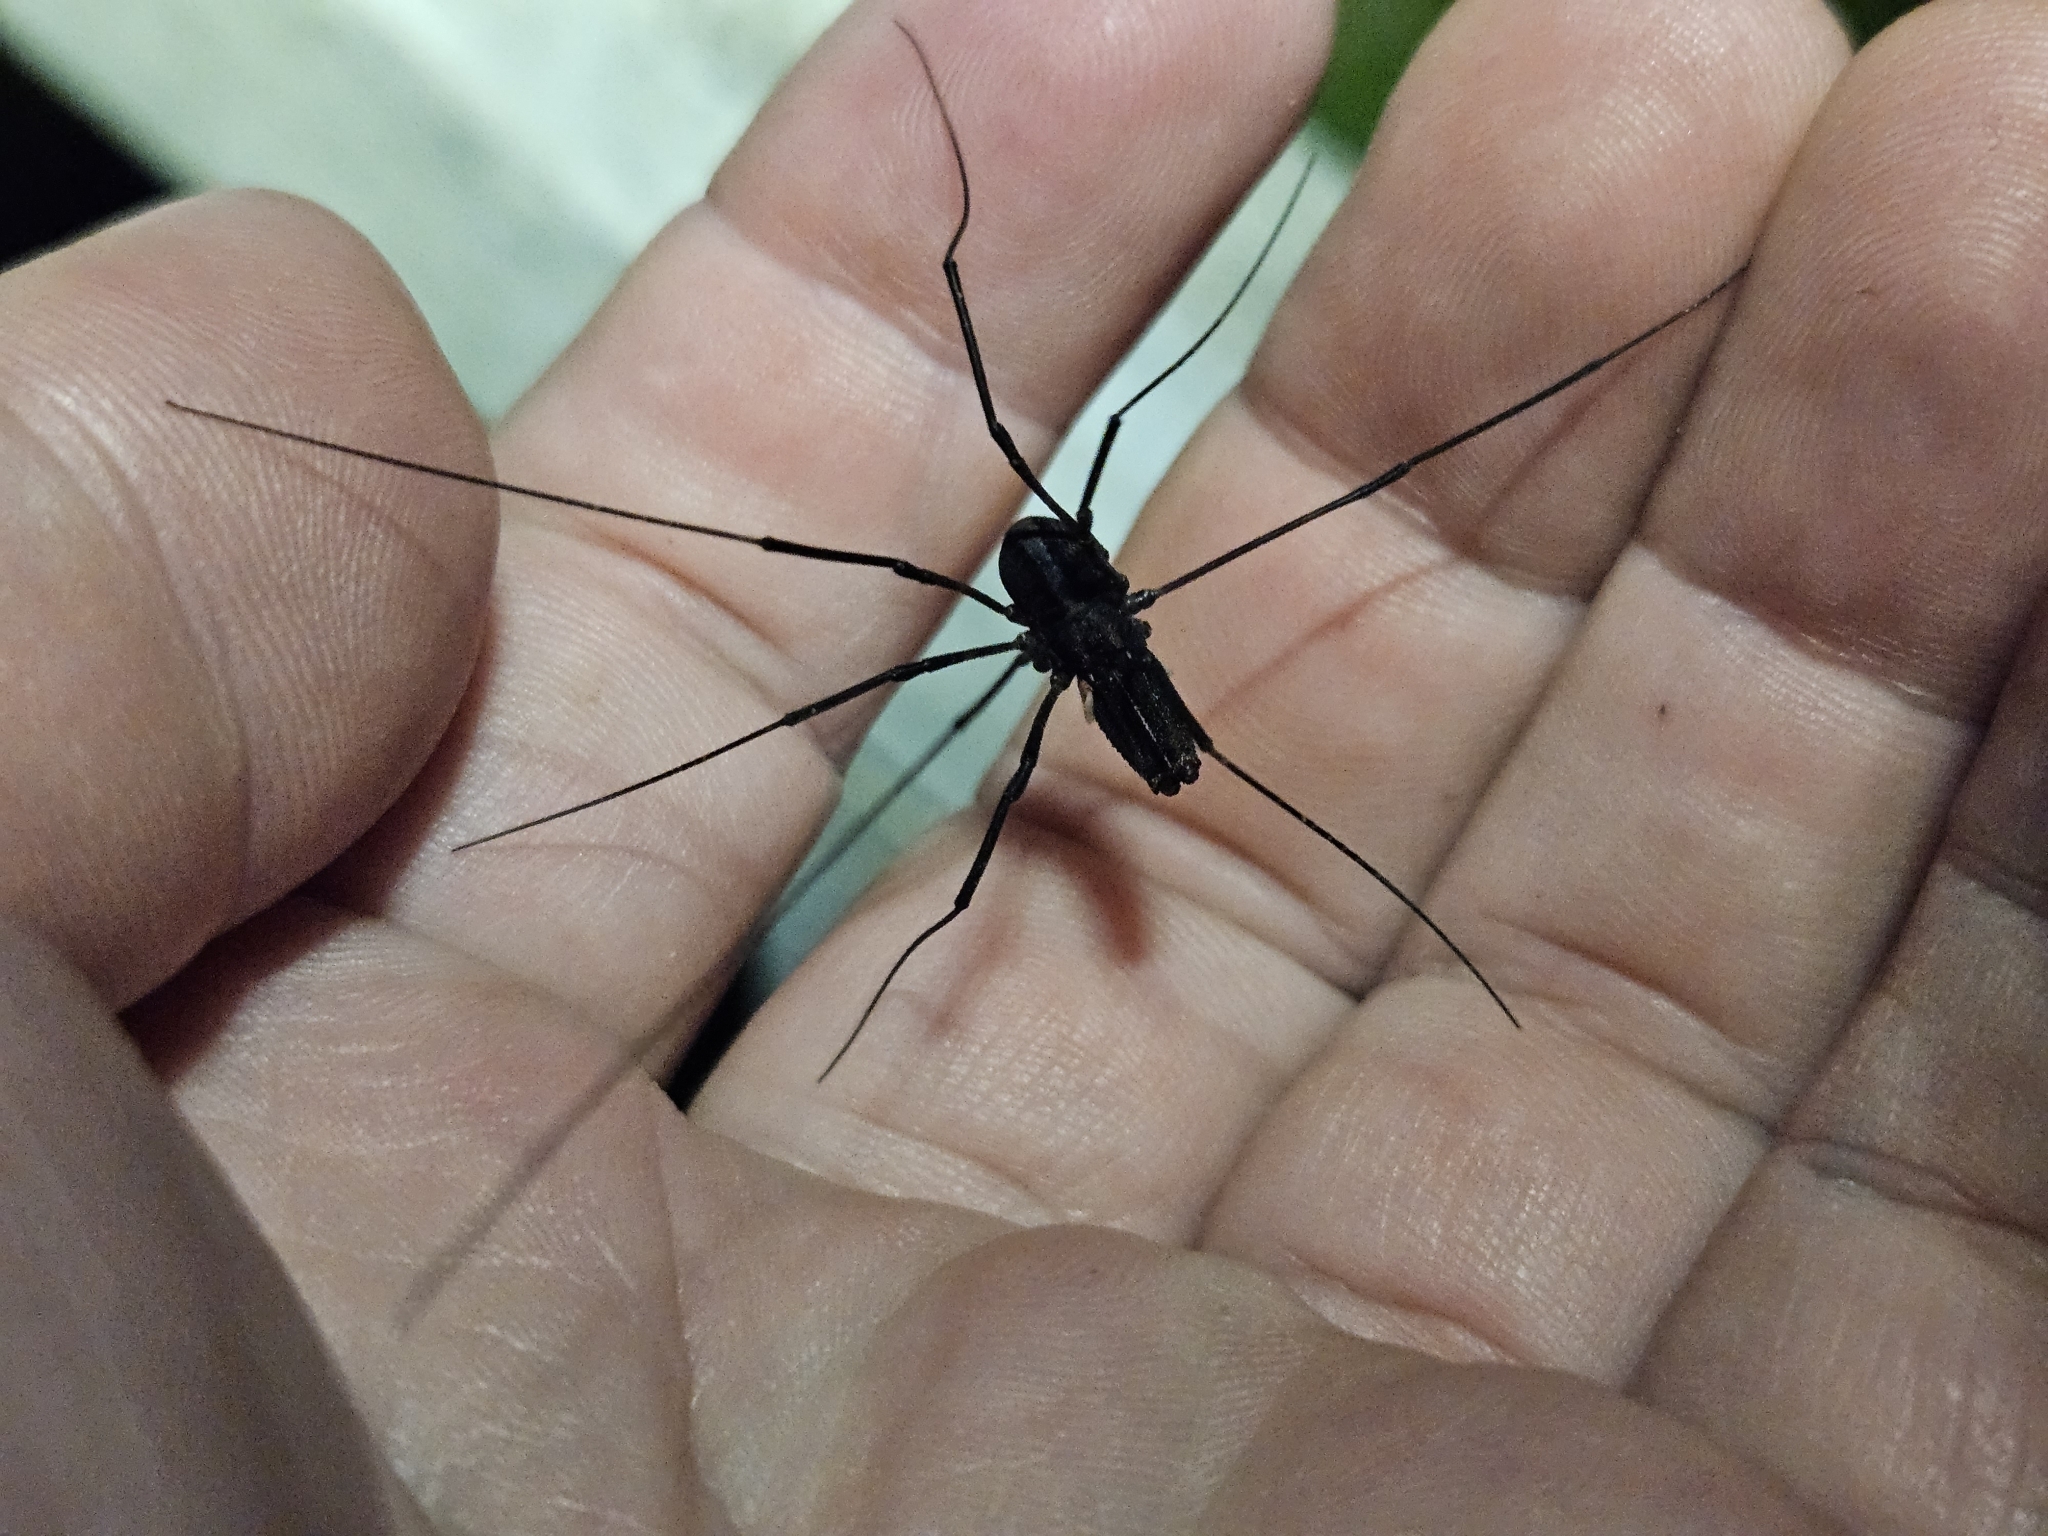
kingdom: Animalia
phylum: Arthropoda
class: Arachnida
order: Opiliones
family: Neopilionidae
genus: Forsteropsalis
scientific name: Forsteropsalis inconstans
